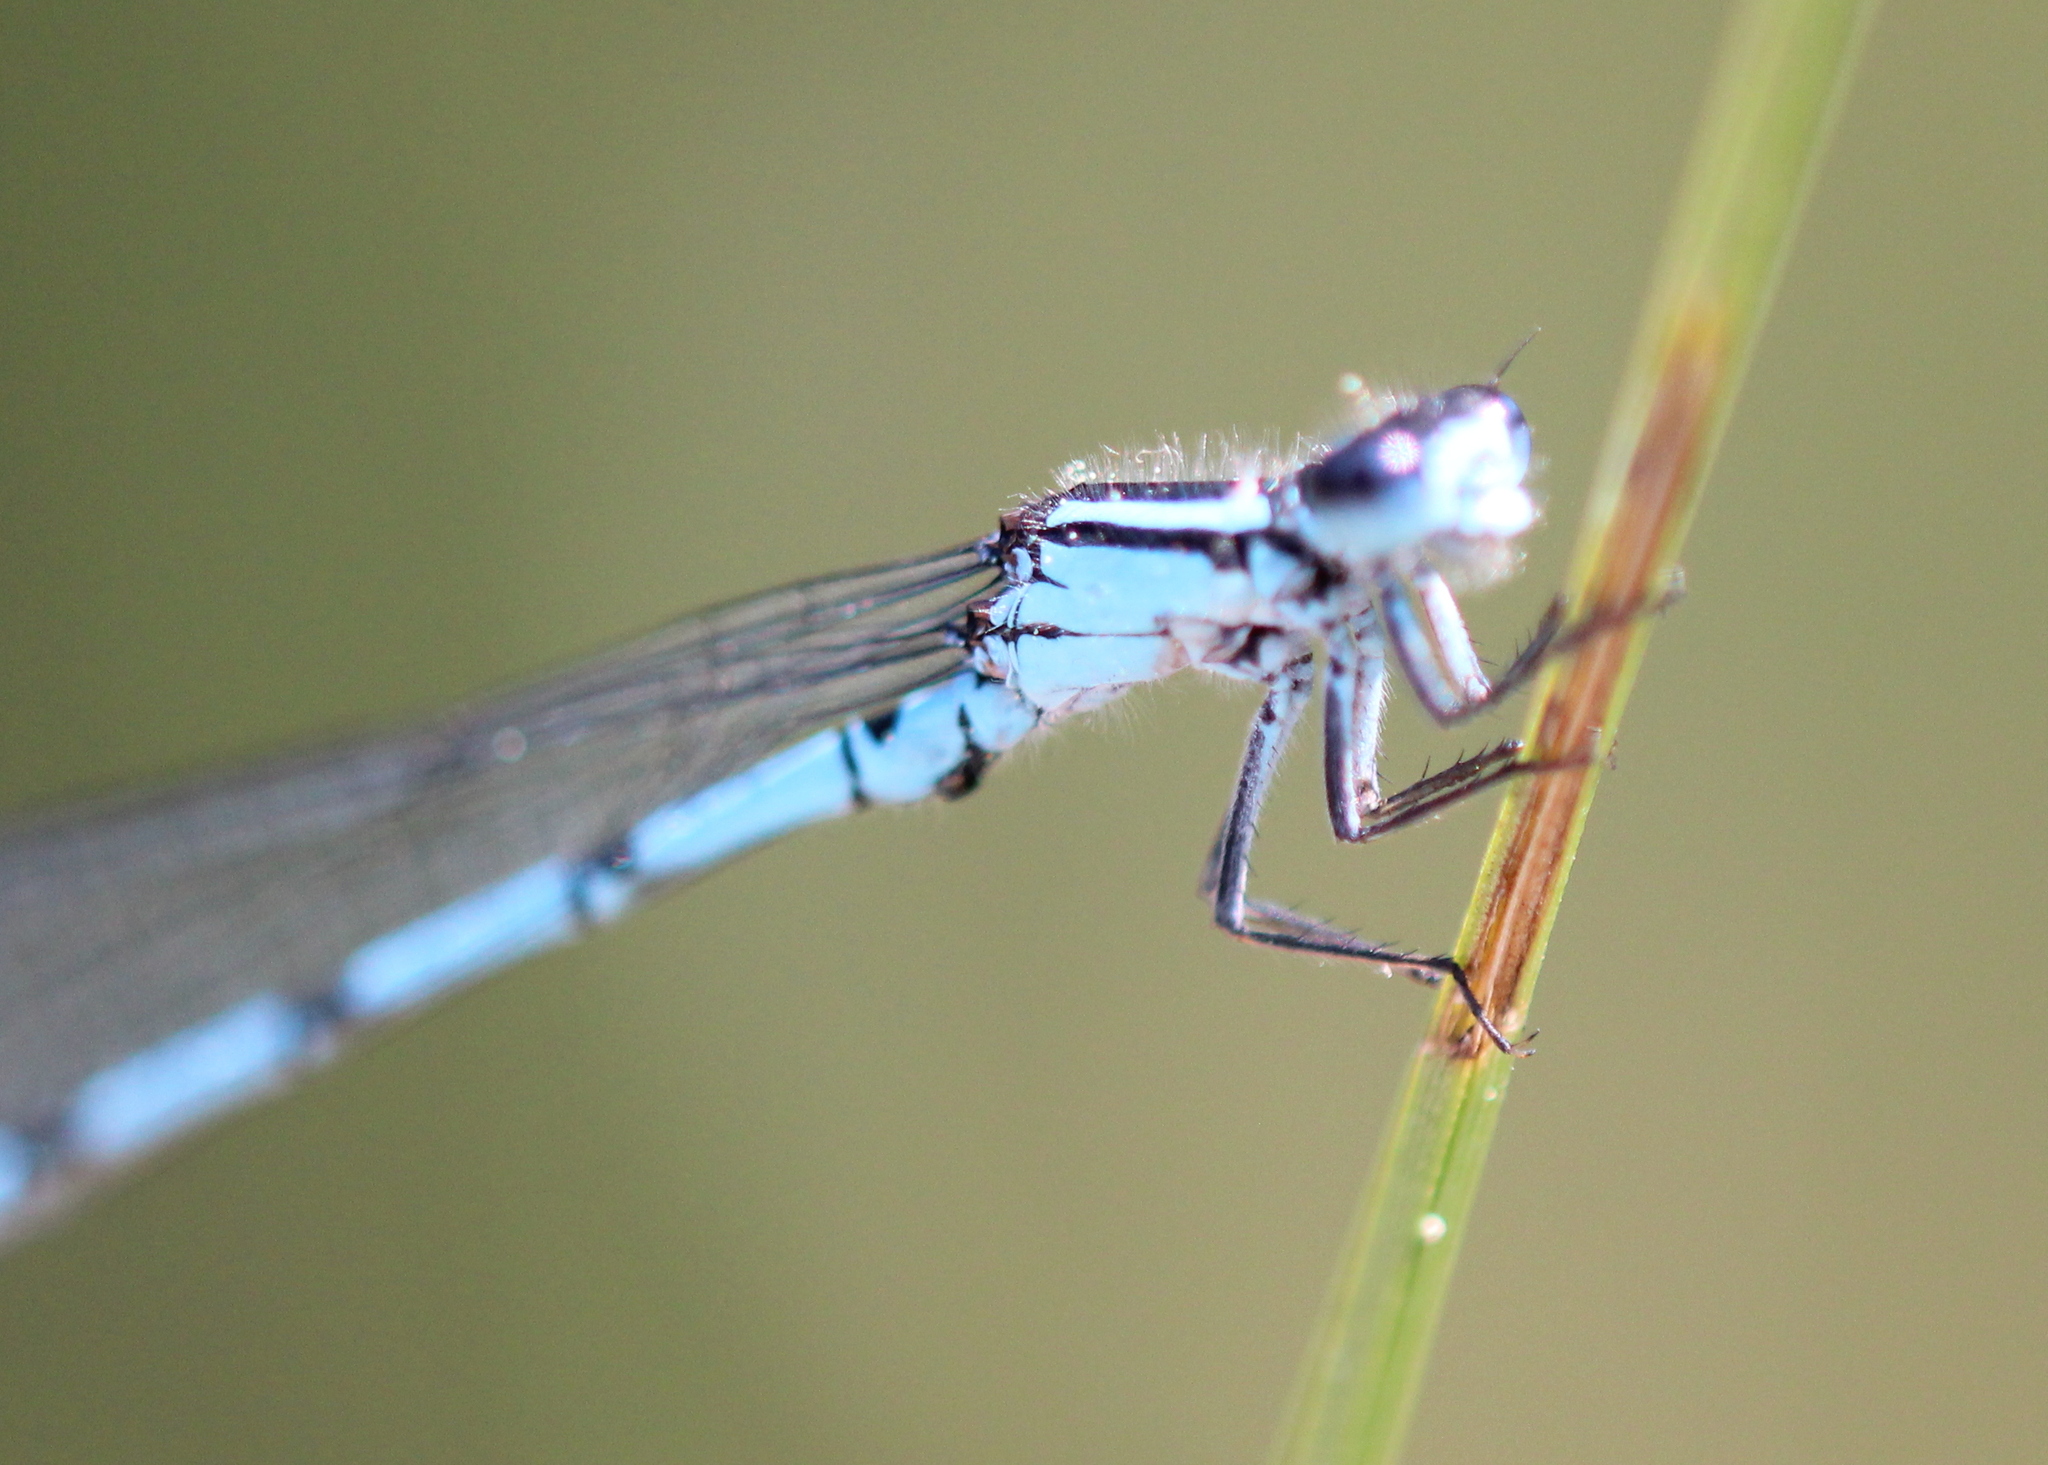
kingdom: Animalia
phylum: Arthropoda
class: Insecta
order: Odonata
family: Coenagrionidae
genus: Enallagma
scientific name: Enallagma laterale
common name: New england bluet
